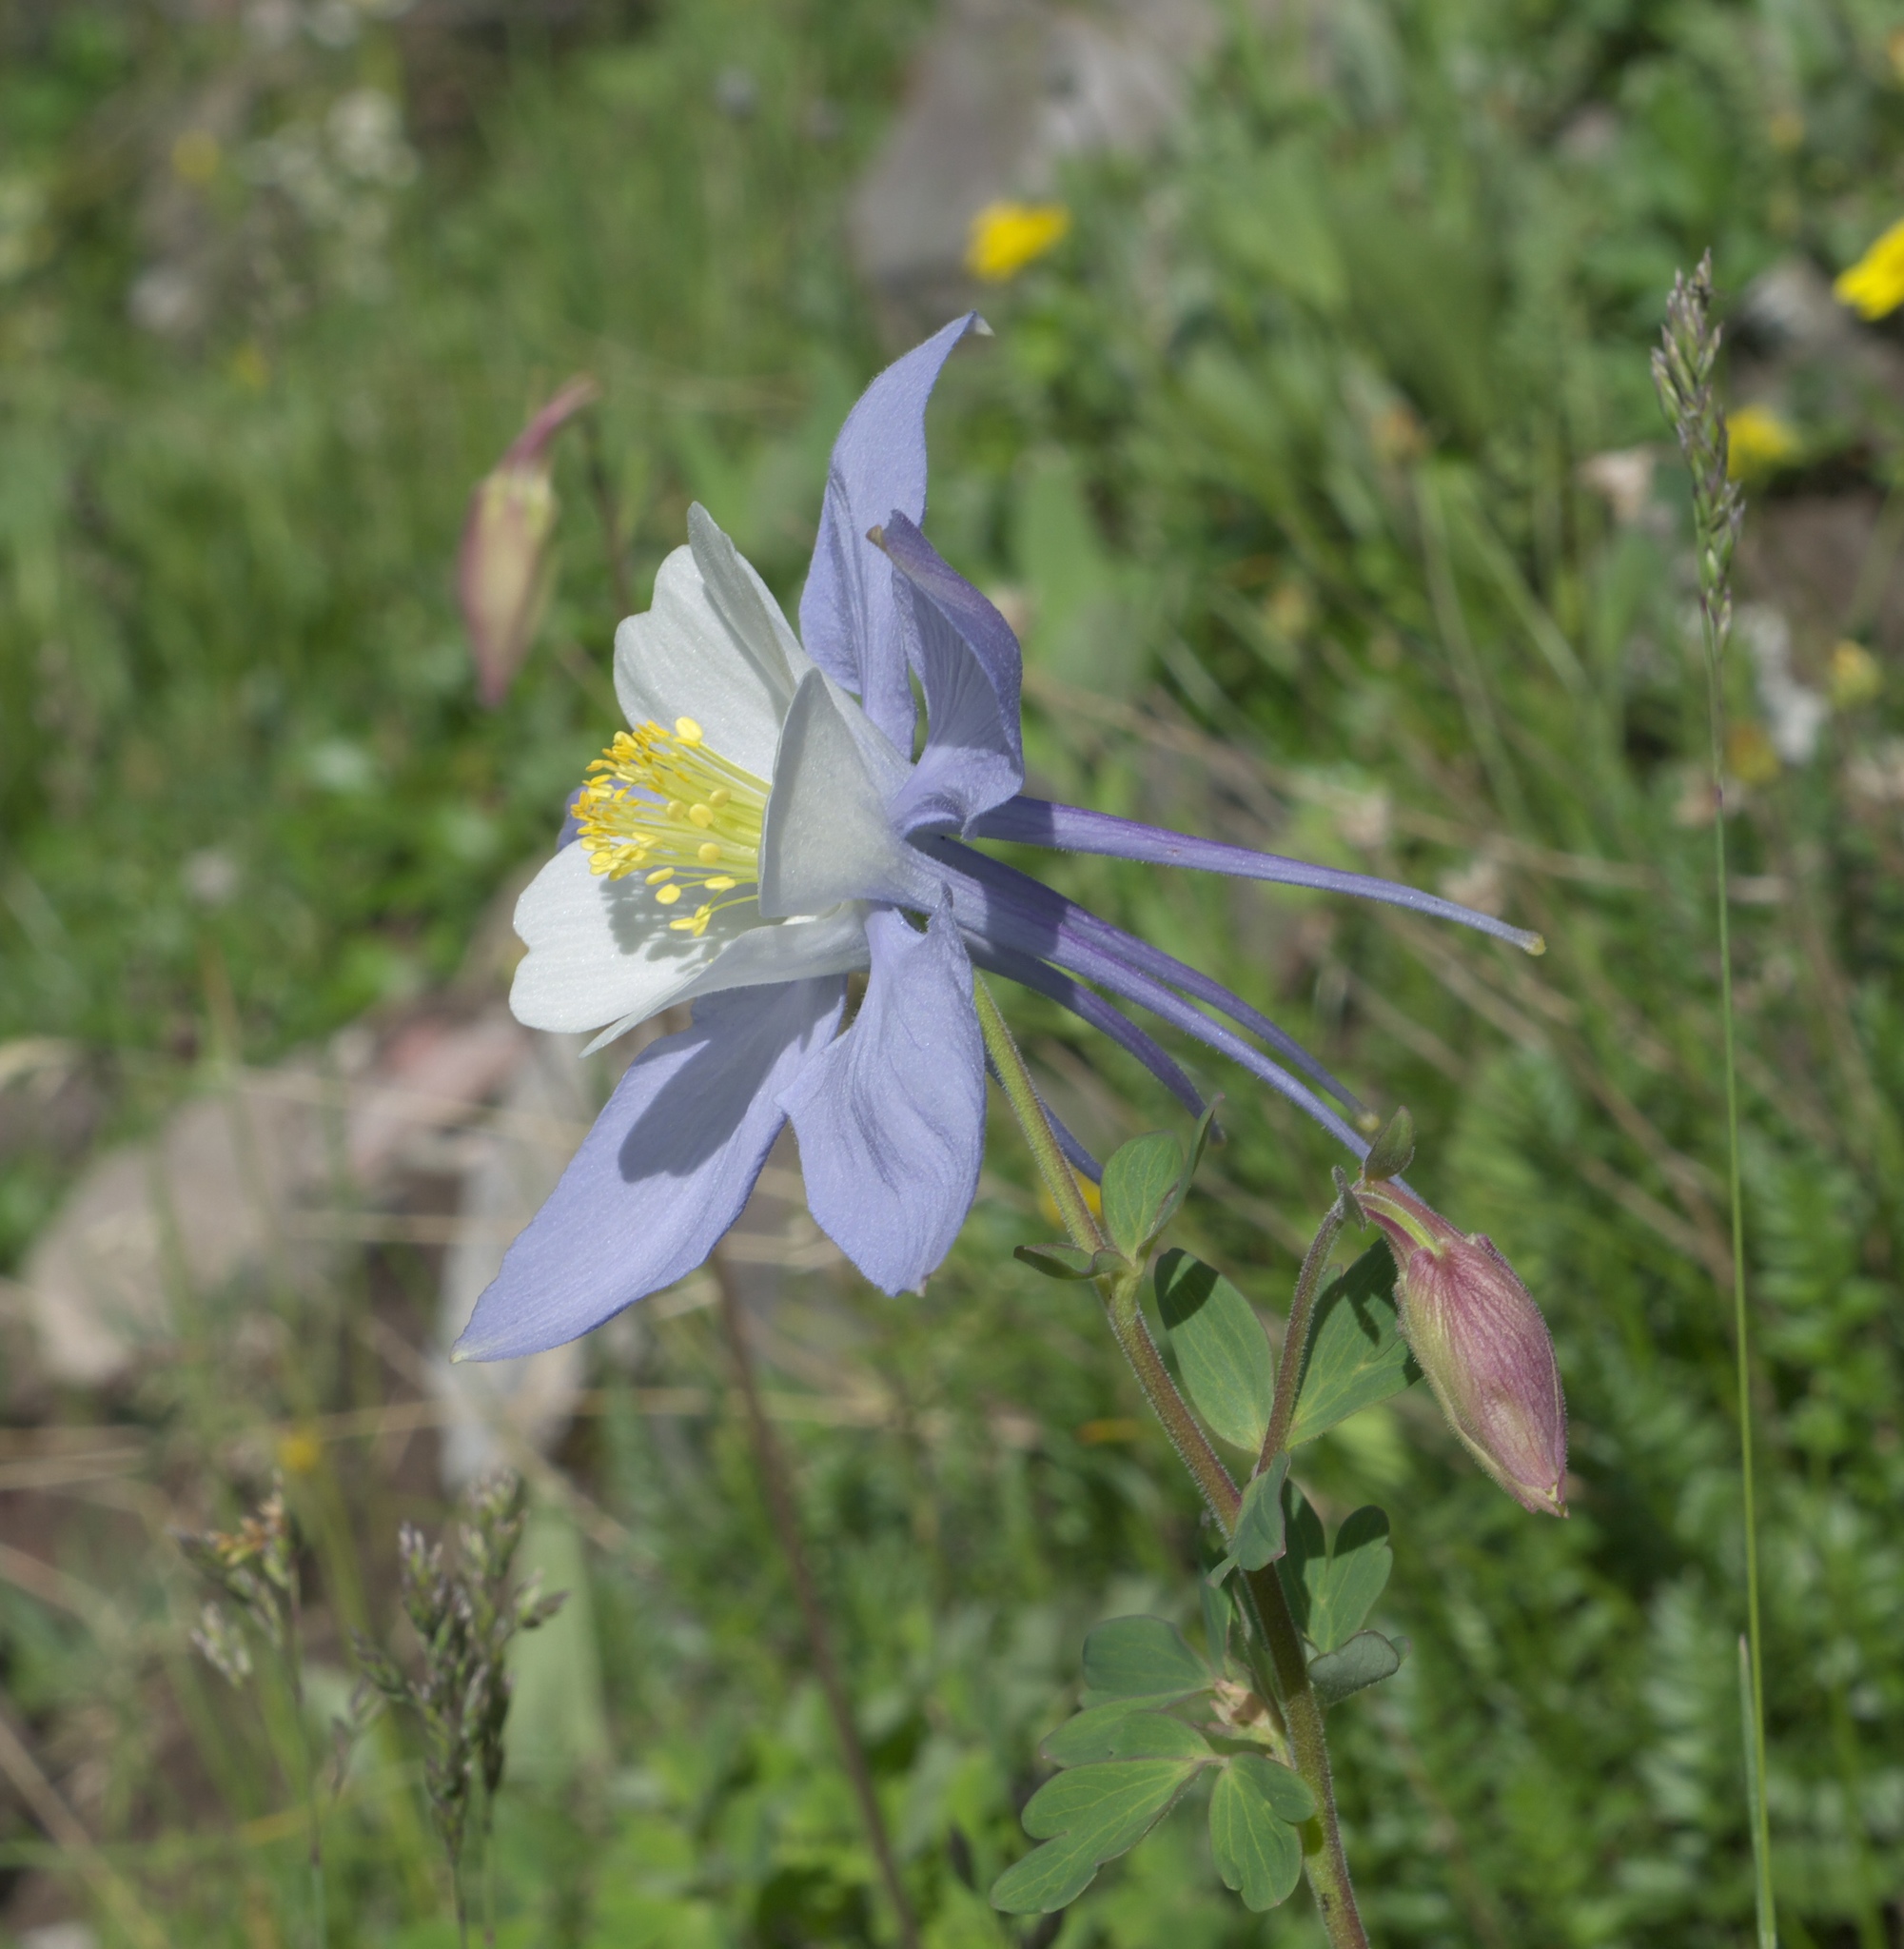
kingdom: Plantae
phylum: Tracheophyta
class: Magnoliopsida
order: Ranunculales
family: Ranunculaceae
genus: Aquilegia
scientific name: Aquilegia coerulea
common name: Rocky mountain columbine
